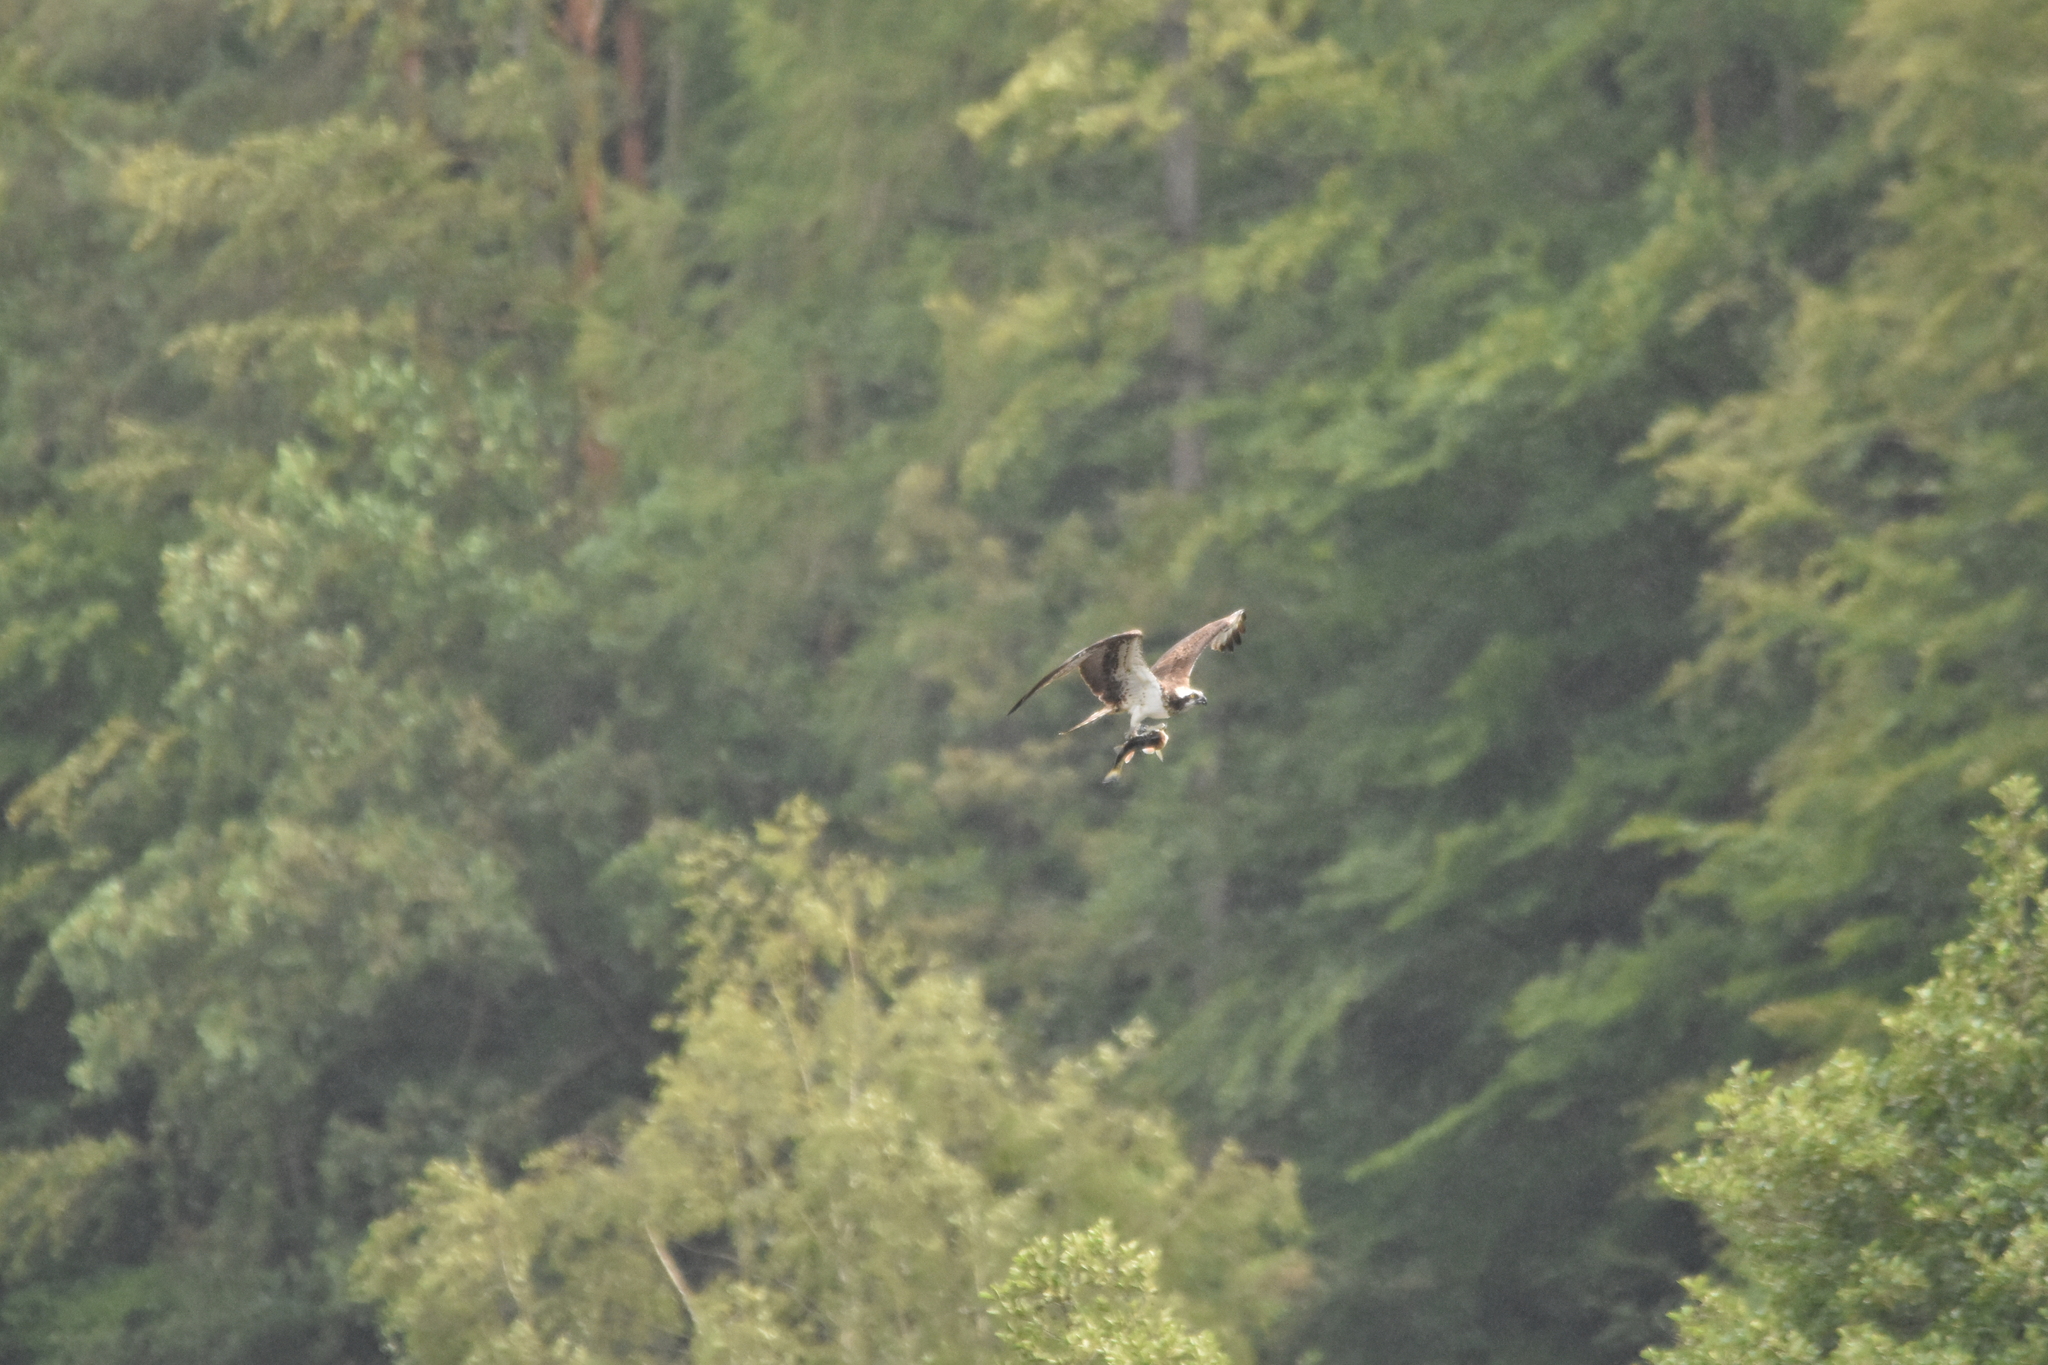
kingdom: Animalia
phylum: Chordata
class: Aves
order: Accipitriformes
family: Pandionidae
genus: Pandion
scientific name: Pandion haliaetus
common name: Osprey
